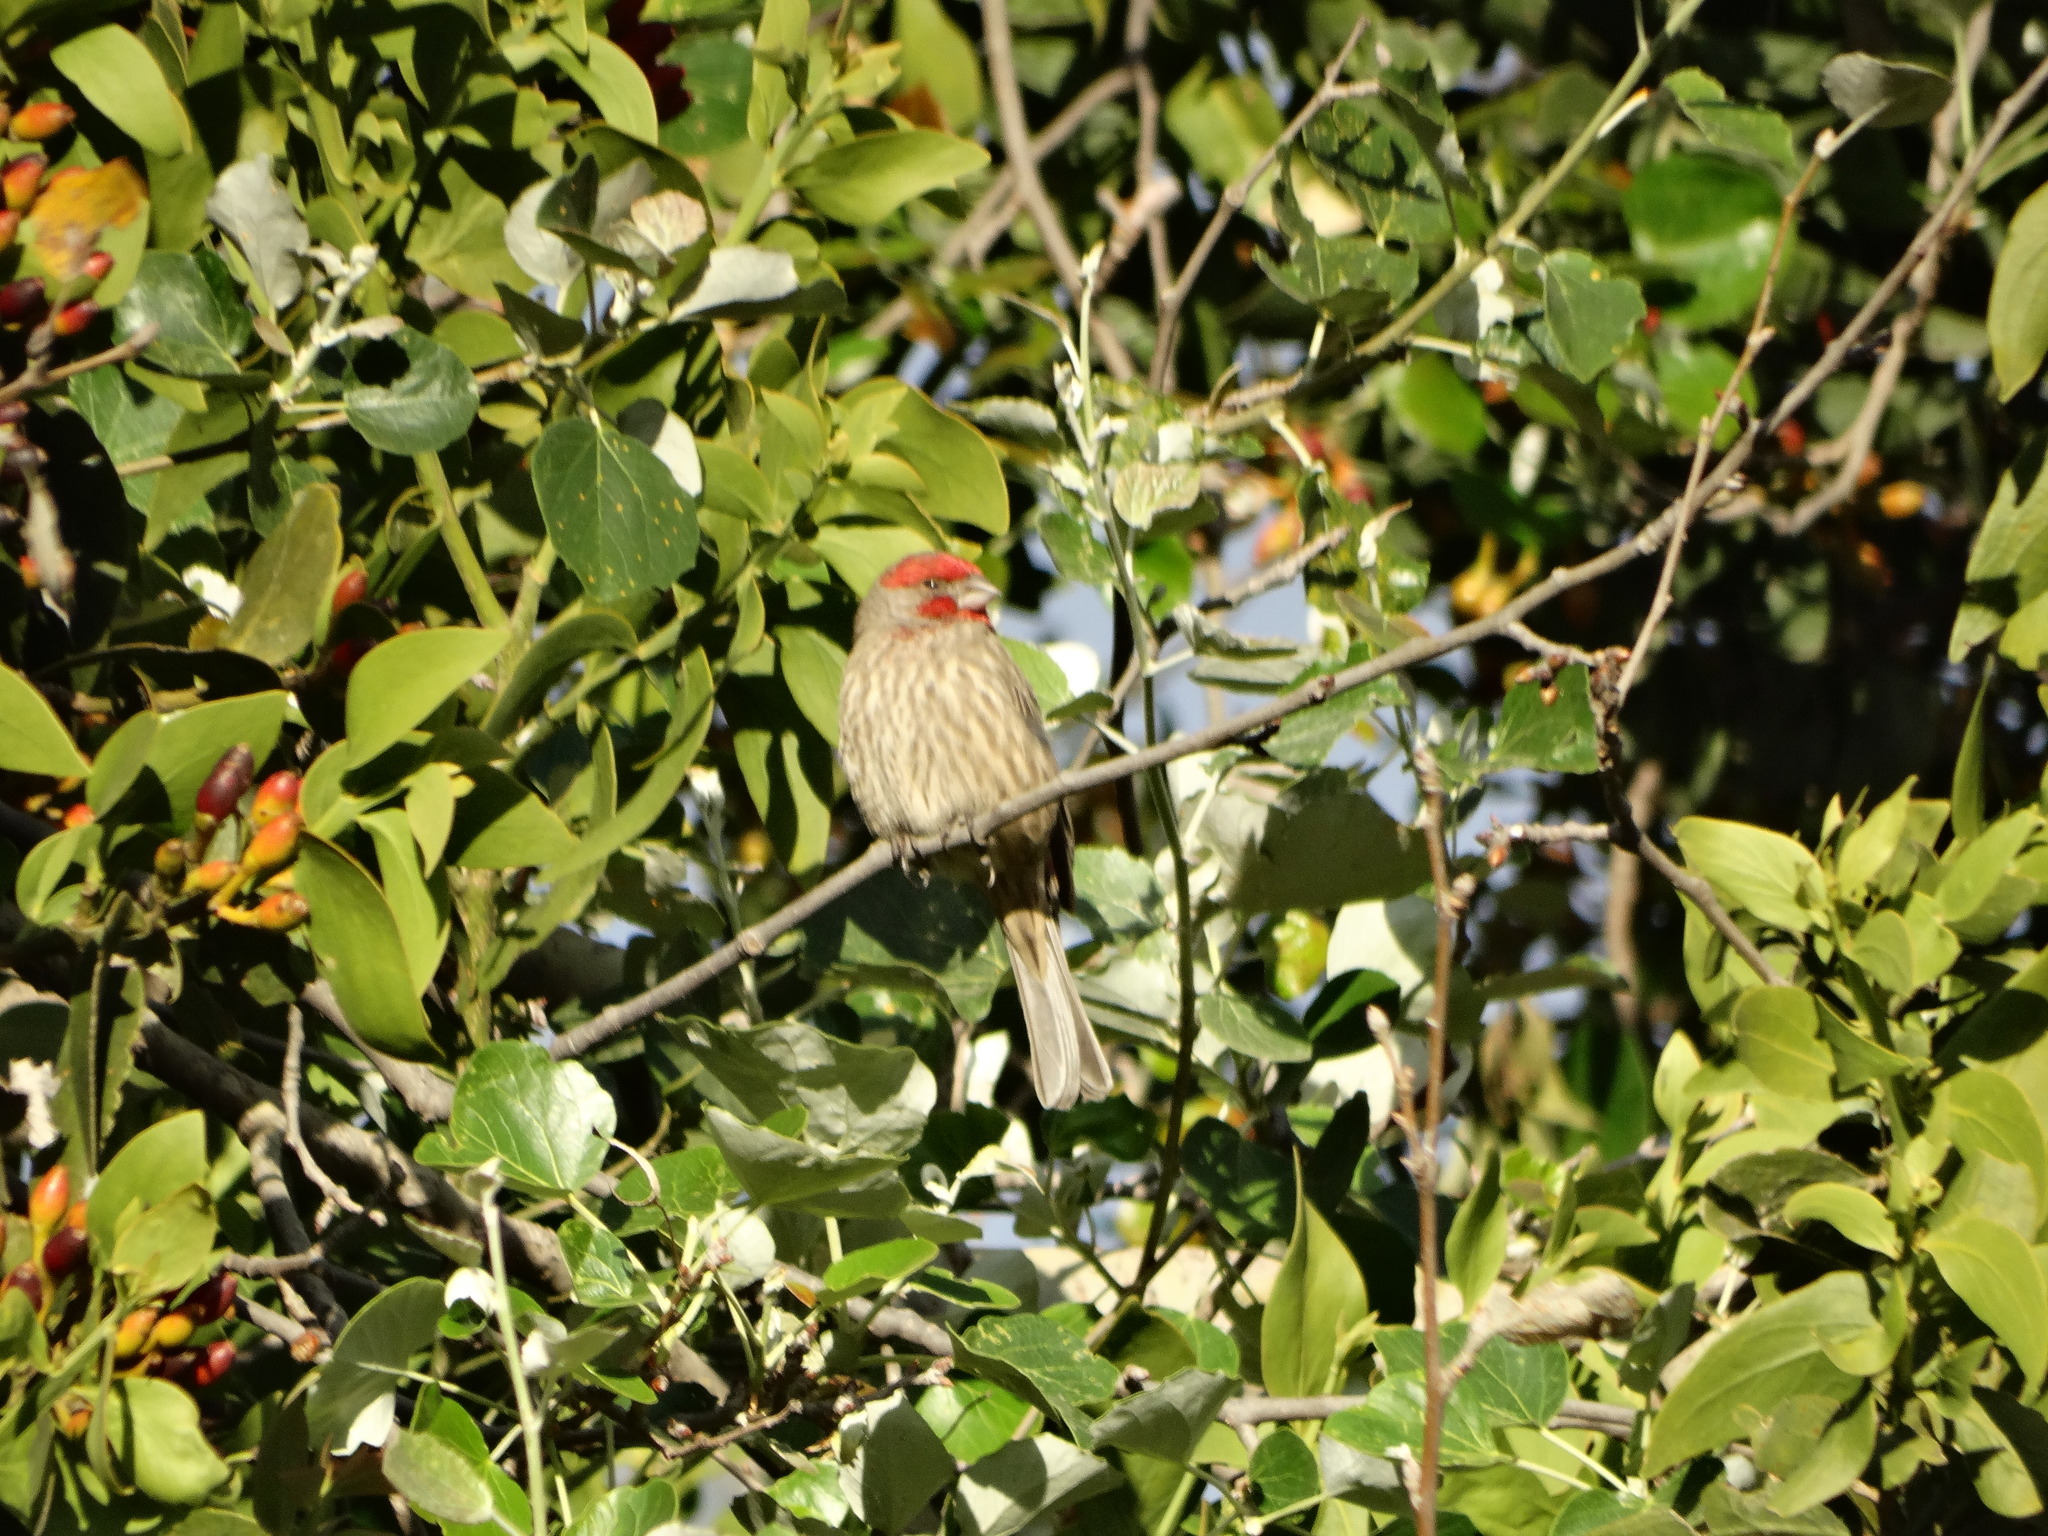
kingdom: Animalia
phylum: Chordata
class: Aves
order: Passeriformes
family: Fringillidae
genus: Haemorhous
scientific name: Haemorhous mexicanus
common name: House finch
